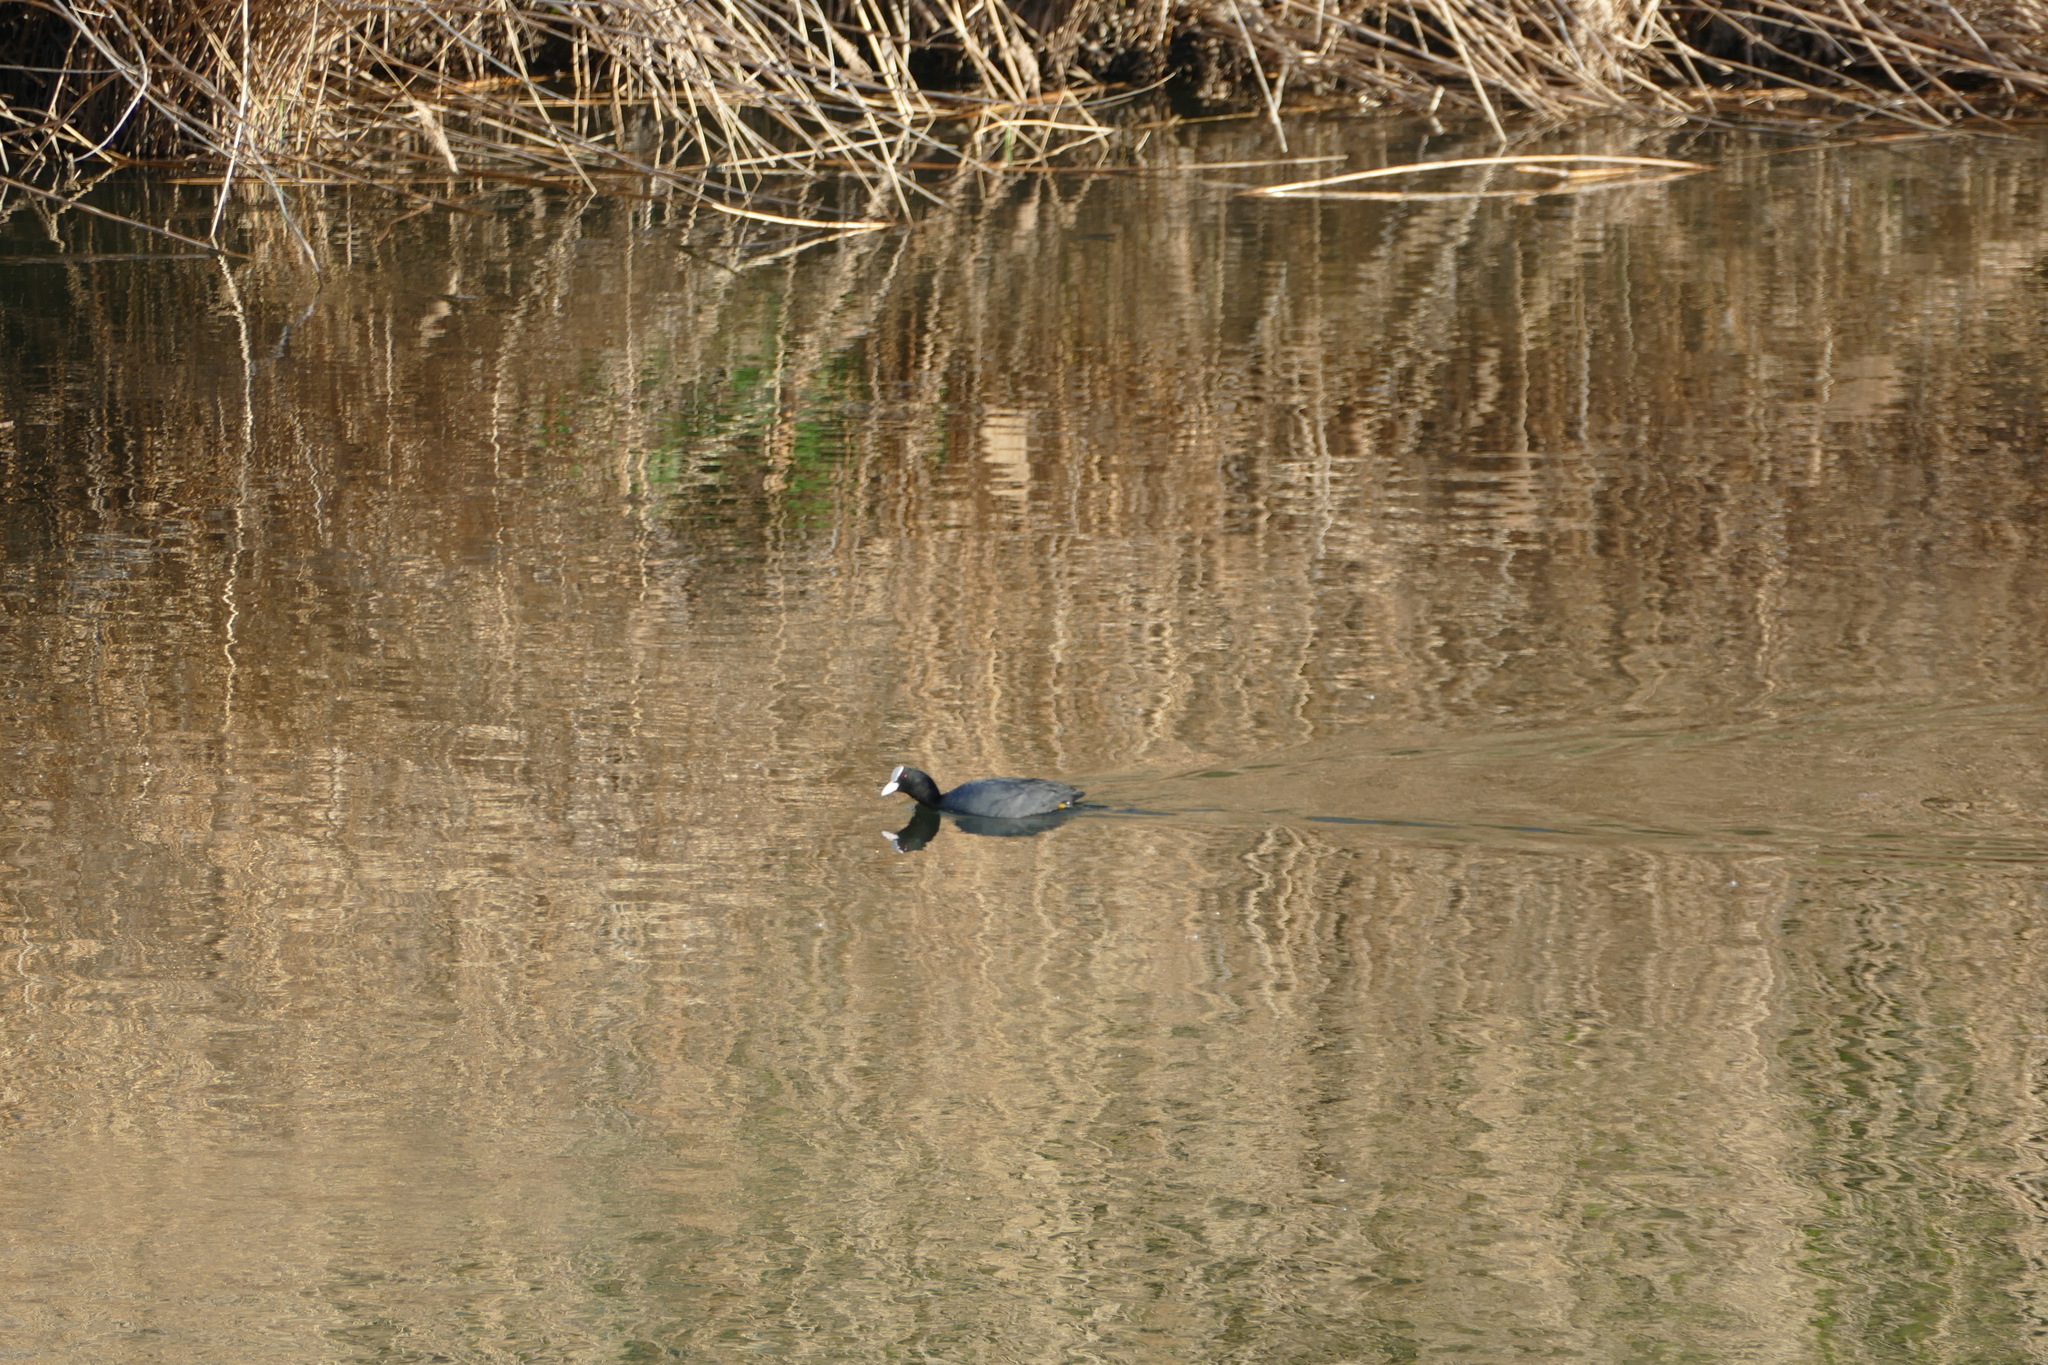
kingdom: Animalia
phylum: Chordata
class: Aves
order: Gruiformes
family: Rallidae
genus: Fulica
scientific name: Fulica atra
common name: Eurasian coot
